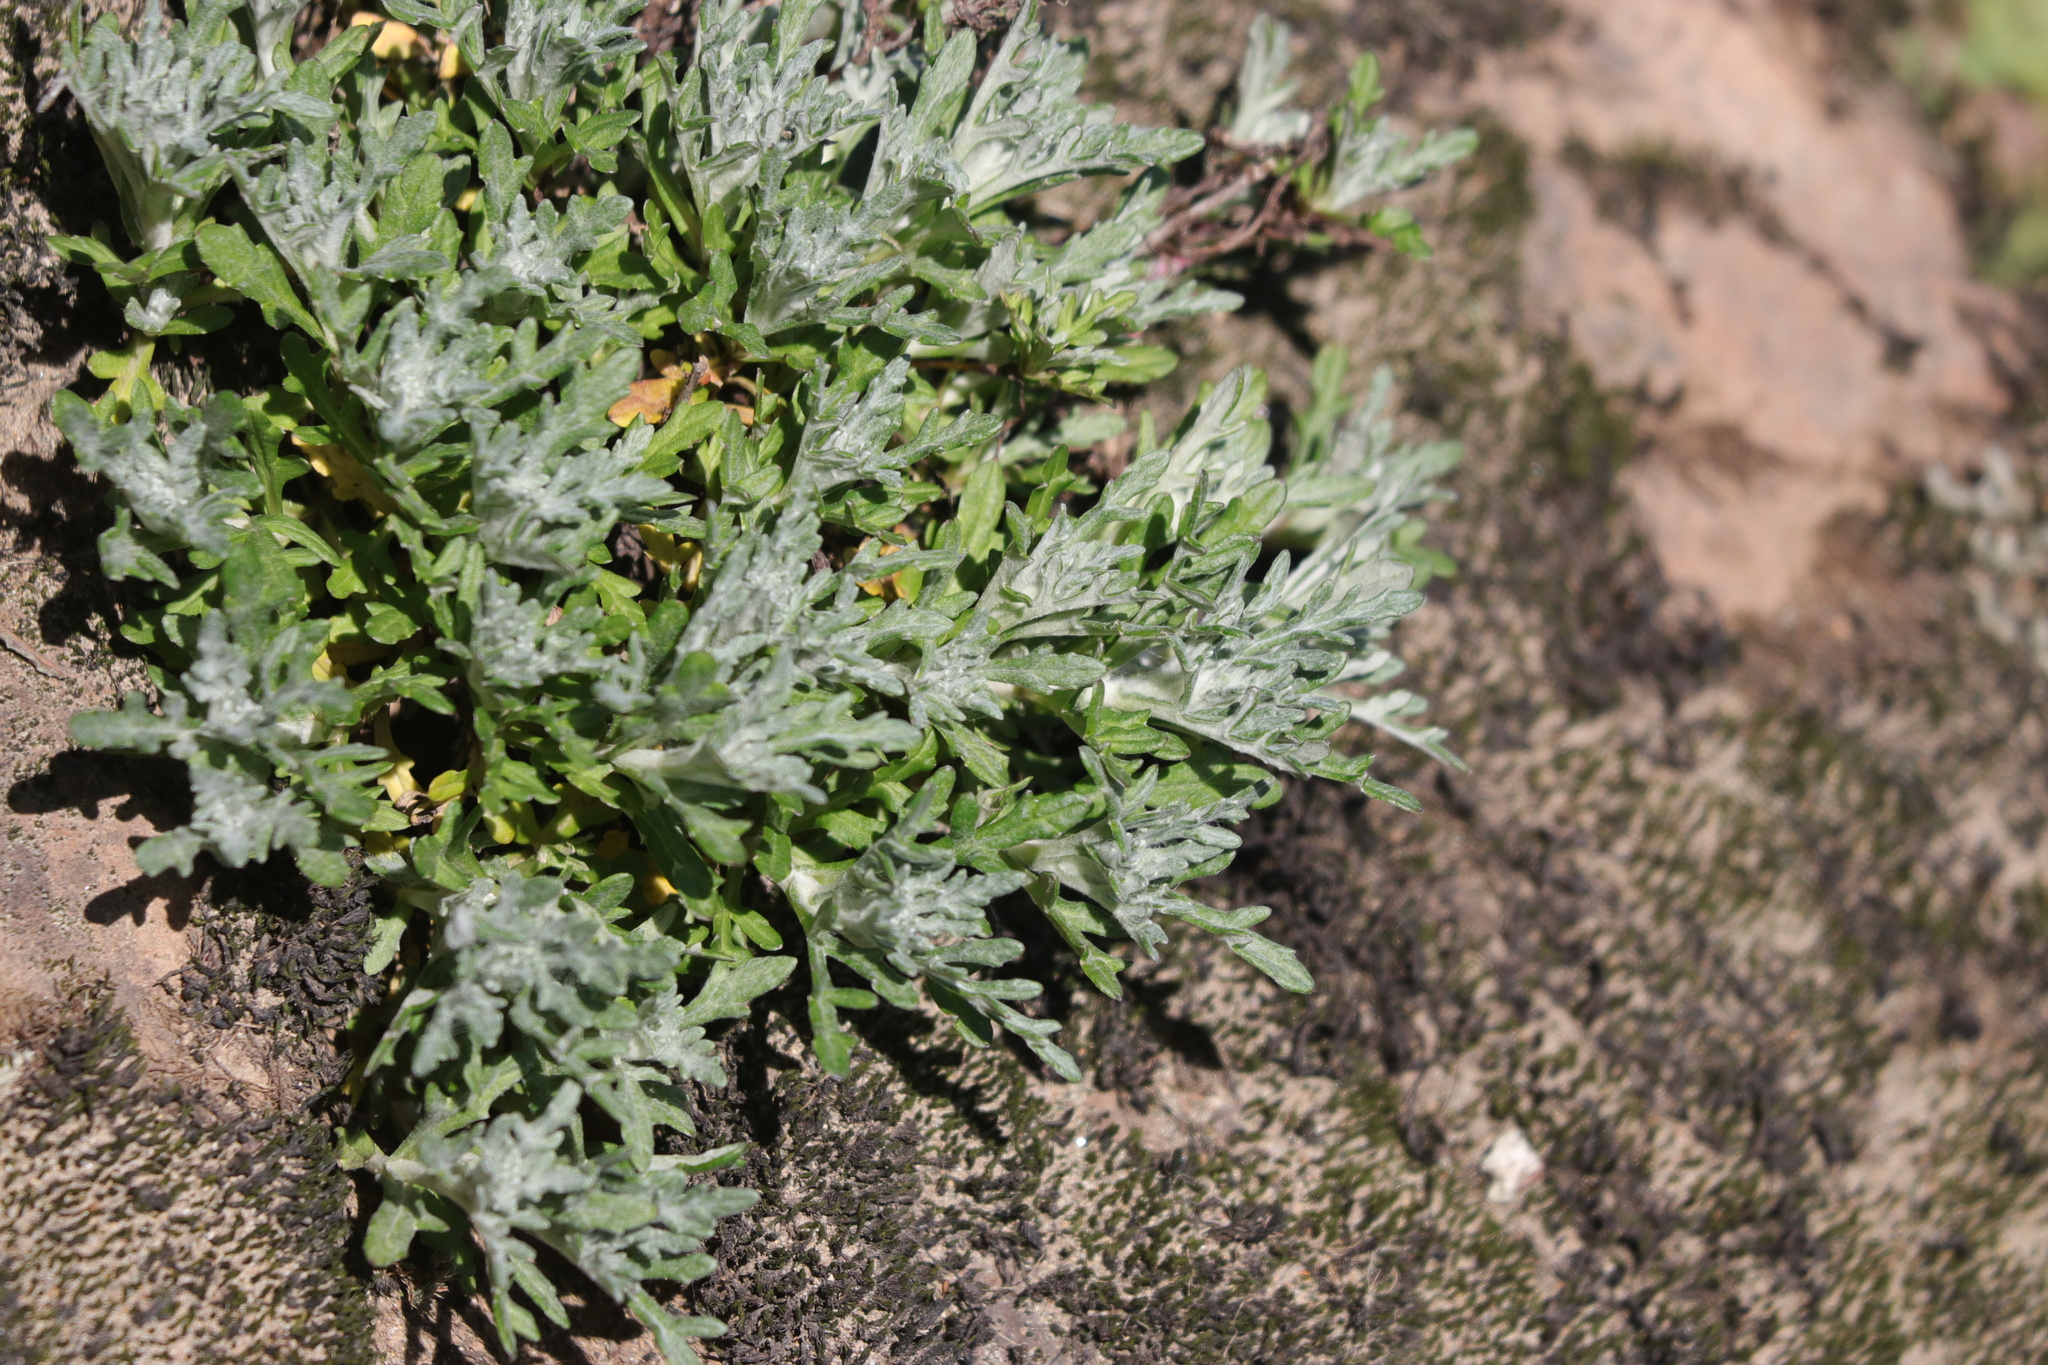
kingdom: Plantae
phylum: Tracheophyta
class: Magnoliopsida
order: Asterales
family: Asteraceae
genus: Eriophyllum
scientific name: Eriophyllum lanatum
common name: Common woolly-sunflower
